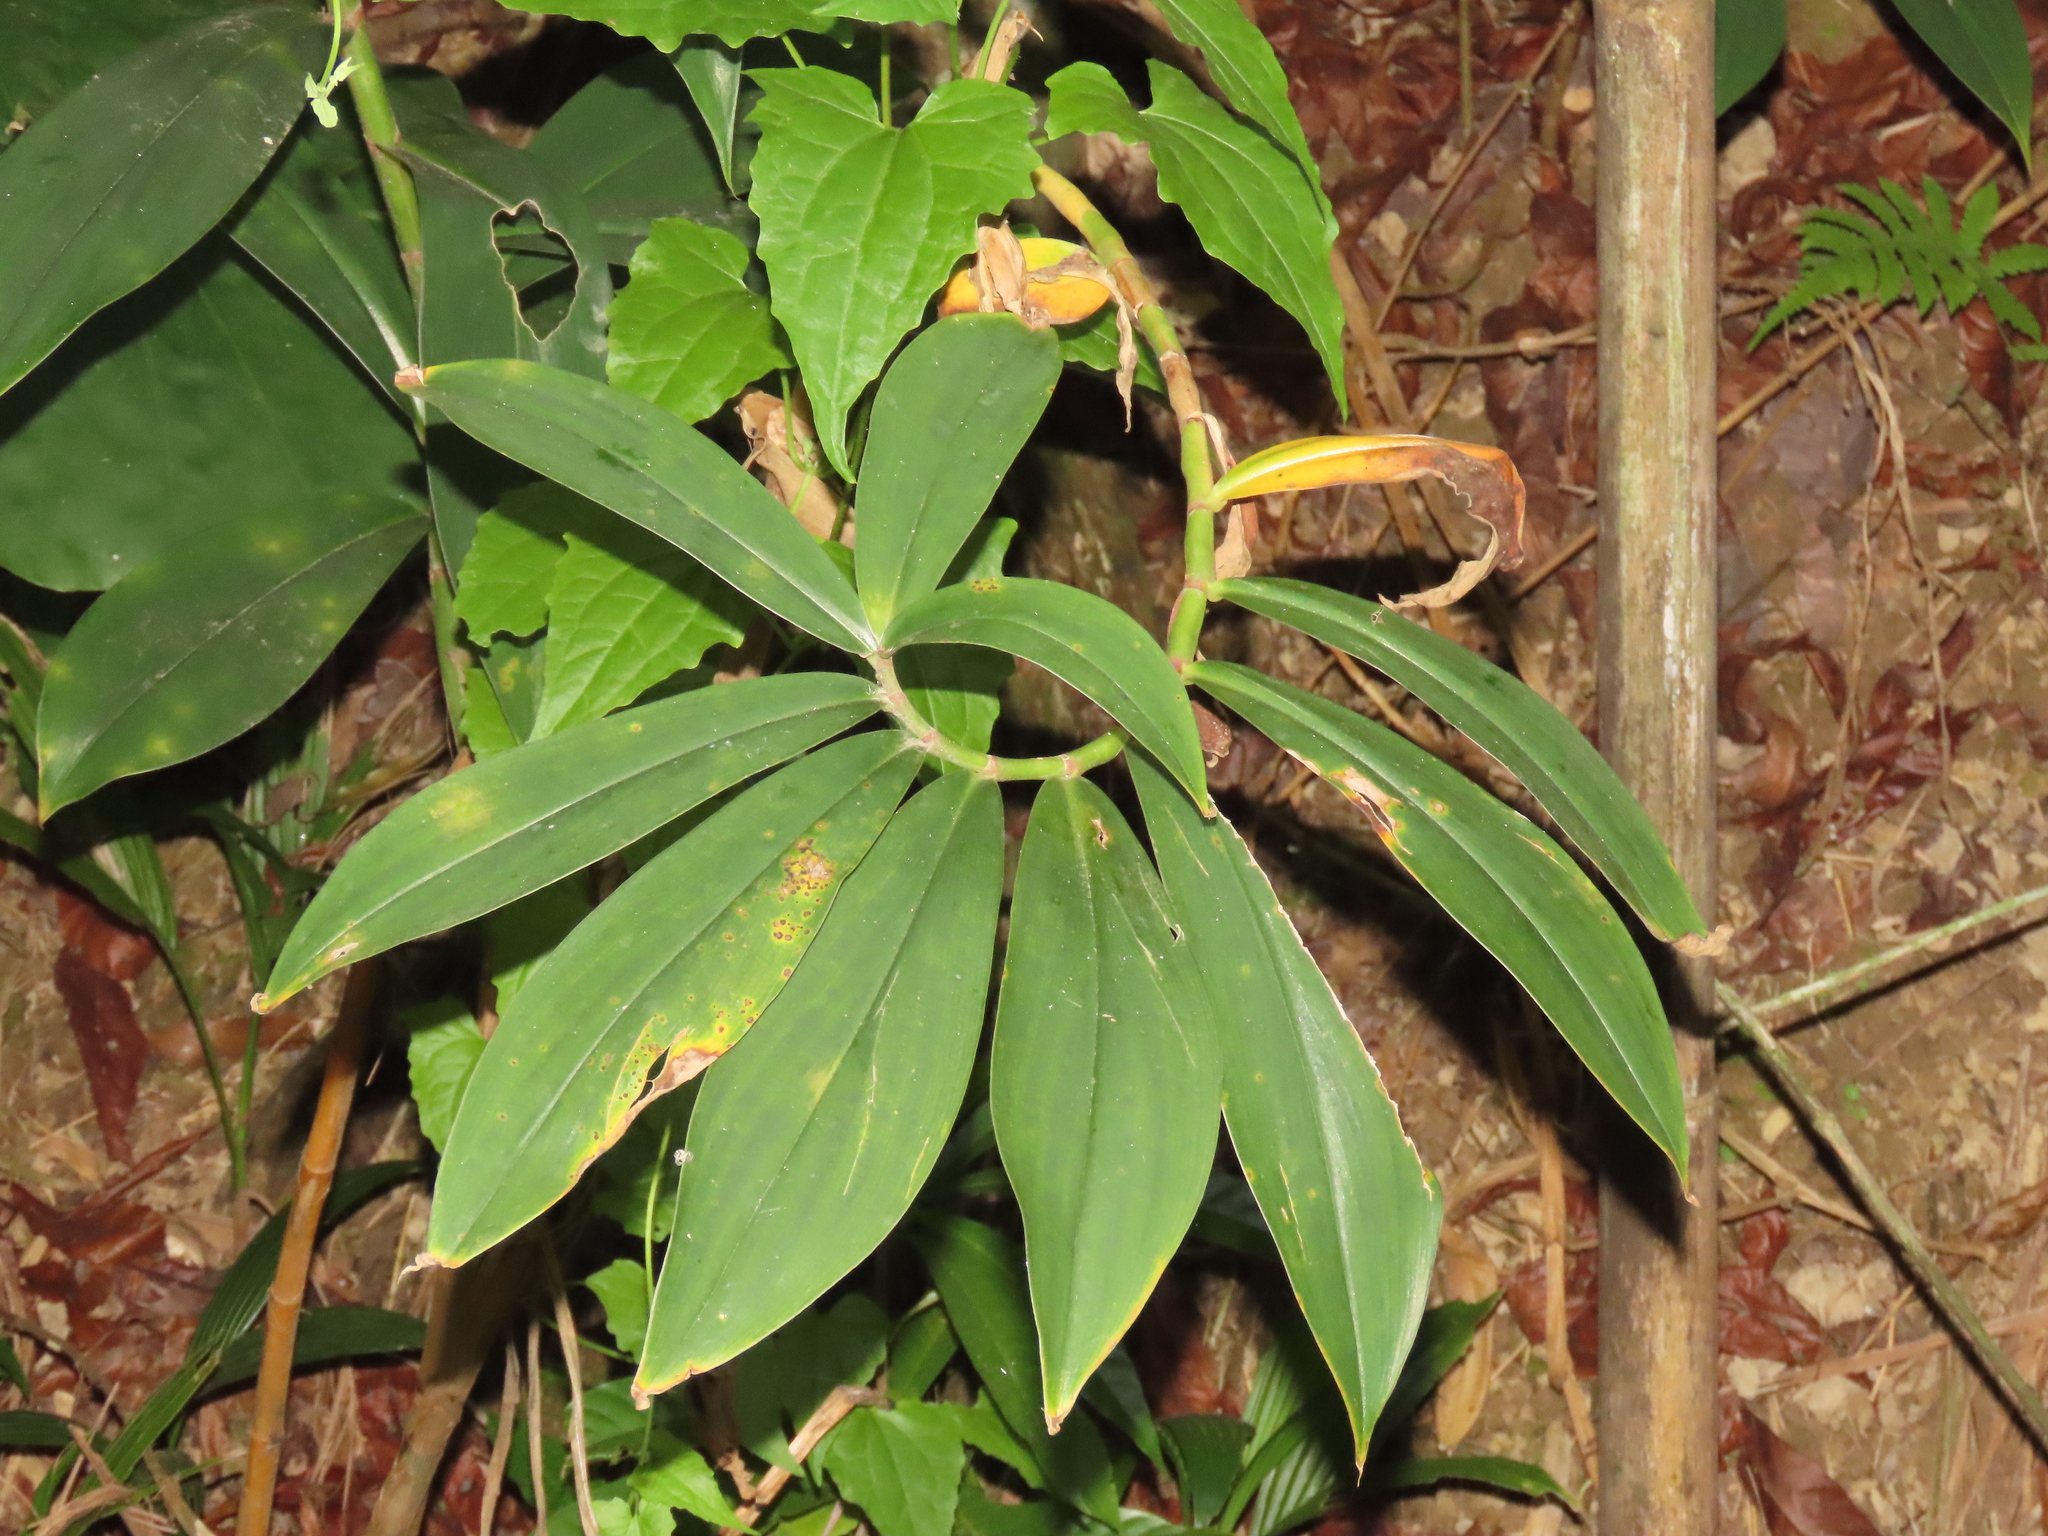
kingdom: Plantae
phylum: Tracheophyta
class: Liliopsida
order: Zingiberales
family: Costaceae
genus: Hellenia
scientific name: Hellenia speciosa
